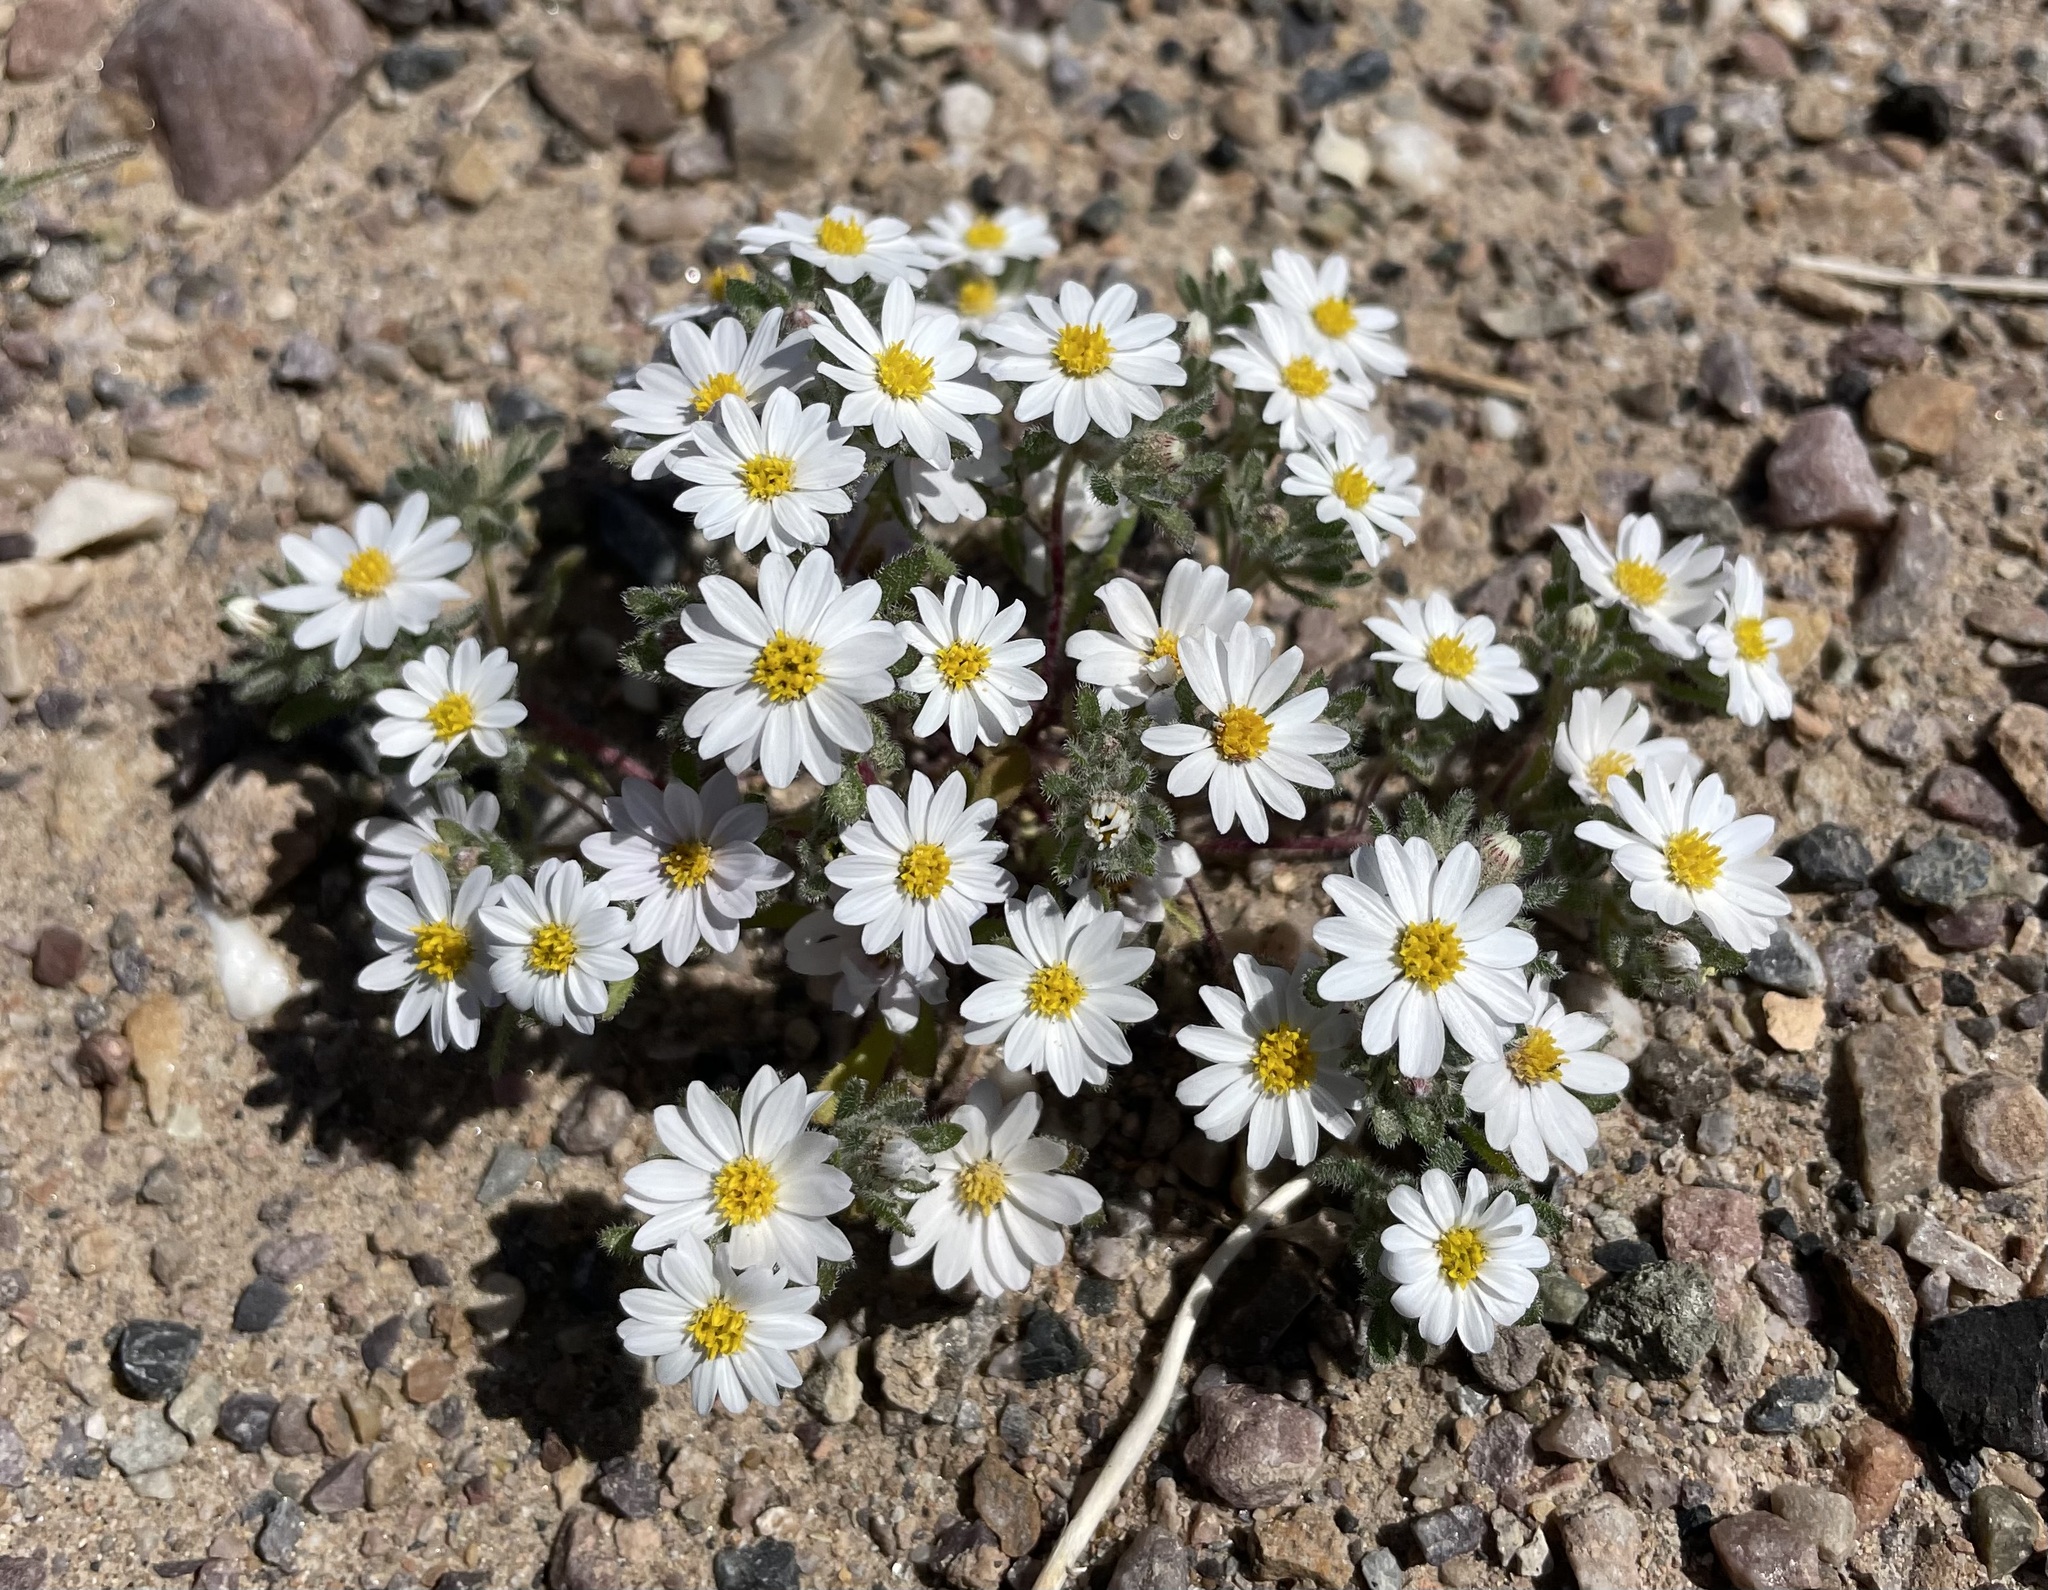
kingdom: Plantae
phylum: Tracheophyta
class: Magnoliopsida
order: Asterales
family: Asteraceae
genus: Monoptilon
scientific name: Monoptilon bellioides
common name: Bristly desertstar
